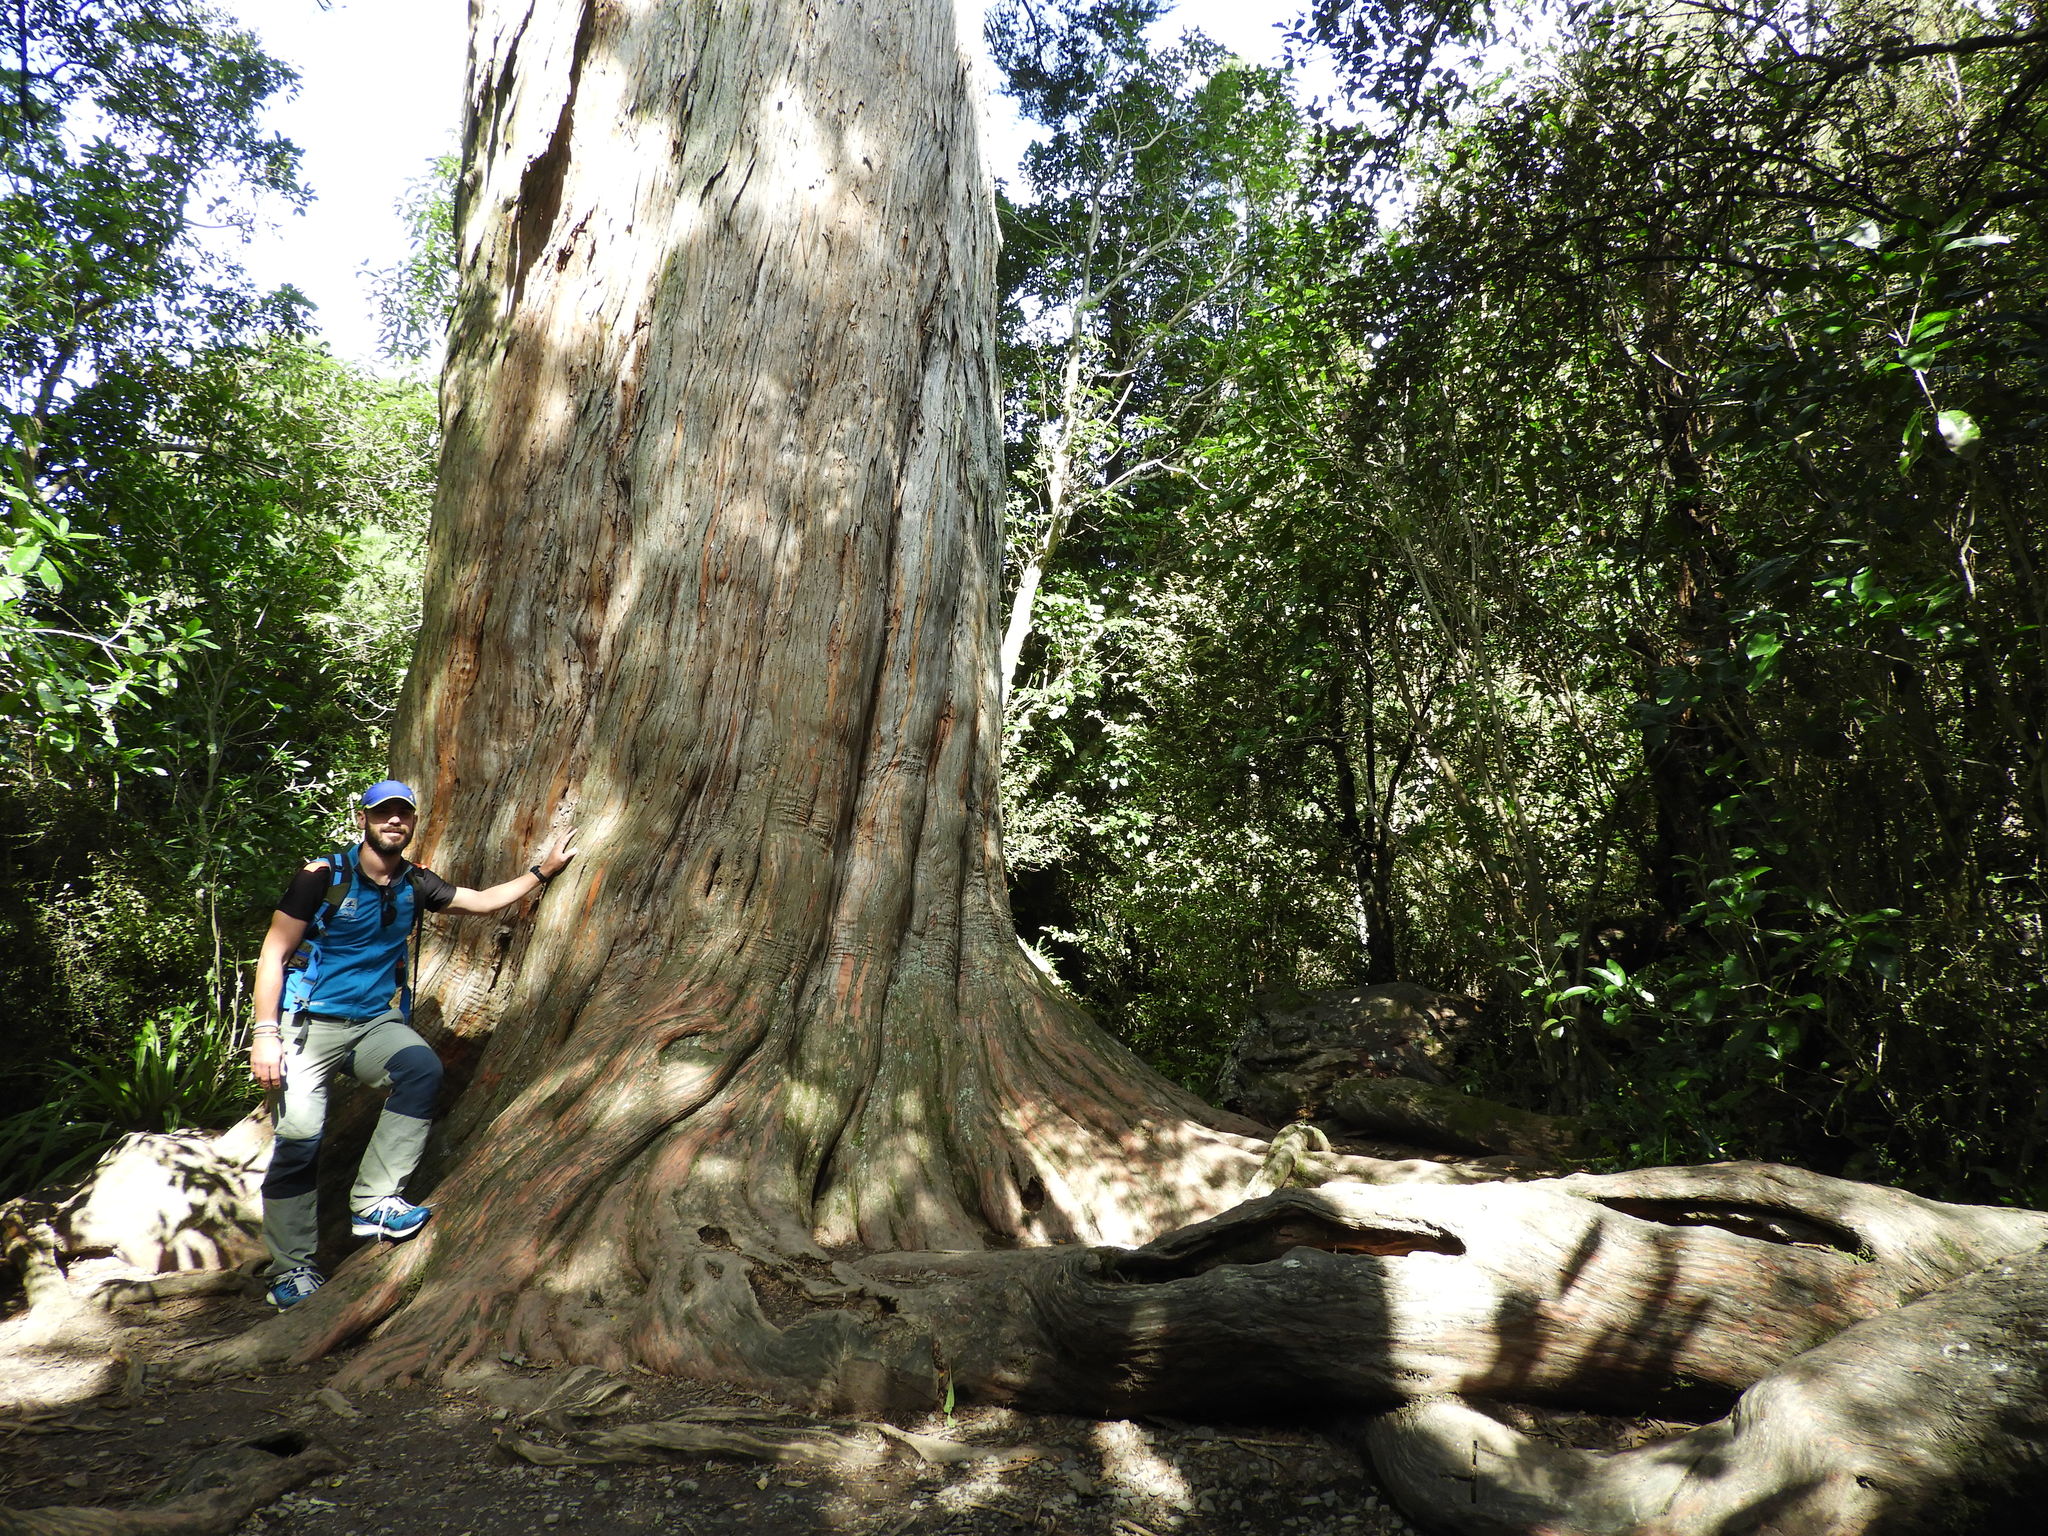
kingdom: Plantae
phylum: Tracheophyta
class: Pinopsida
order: Pinales
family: Podocarpaceae
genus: Podocarpus
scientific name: Podocarpus totara
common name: Totara
